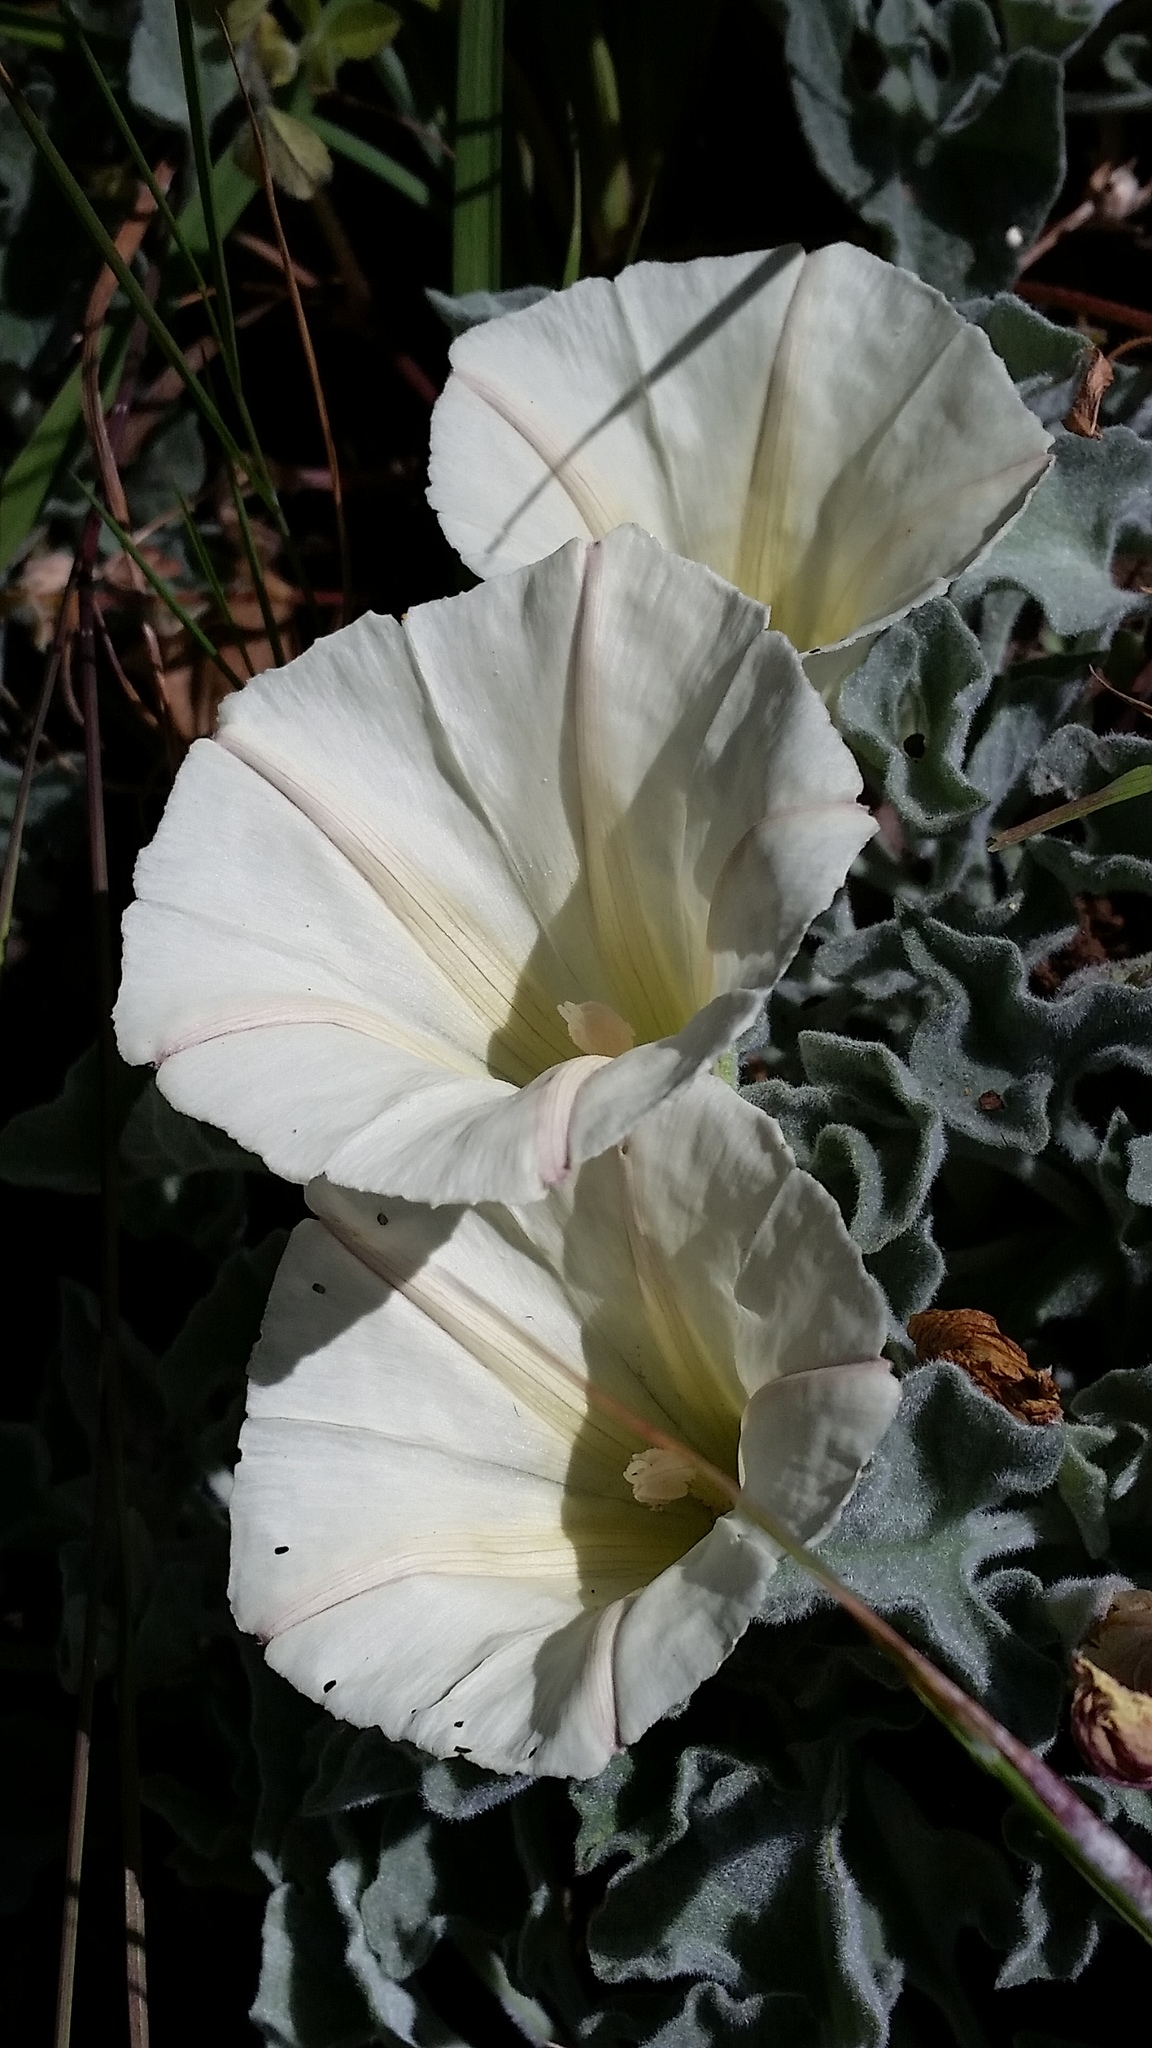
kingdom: Plantae
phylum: Tracheophyta
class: Magnoliopsida
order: Solanales
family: Convolvulaceae
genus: Calystegia
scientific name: Calystegia collina
